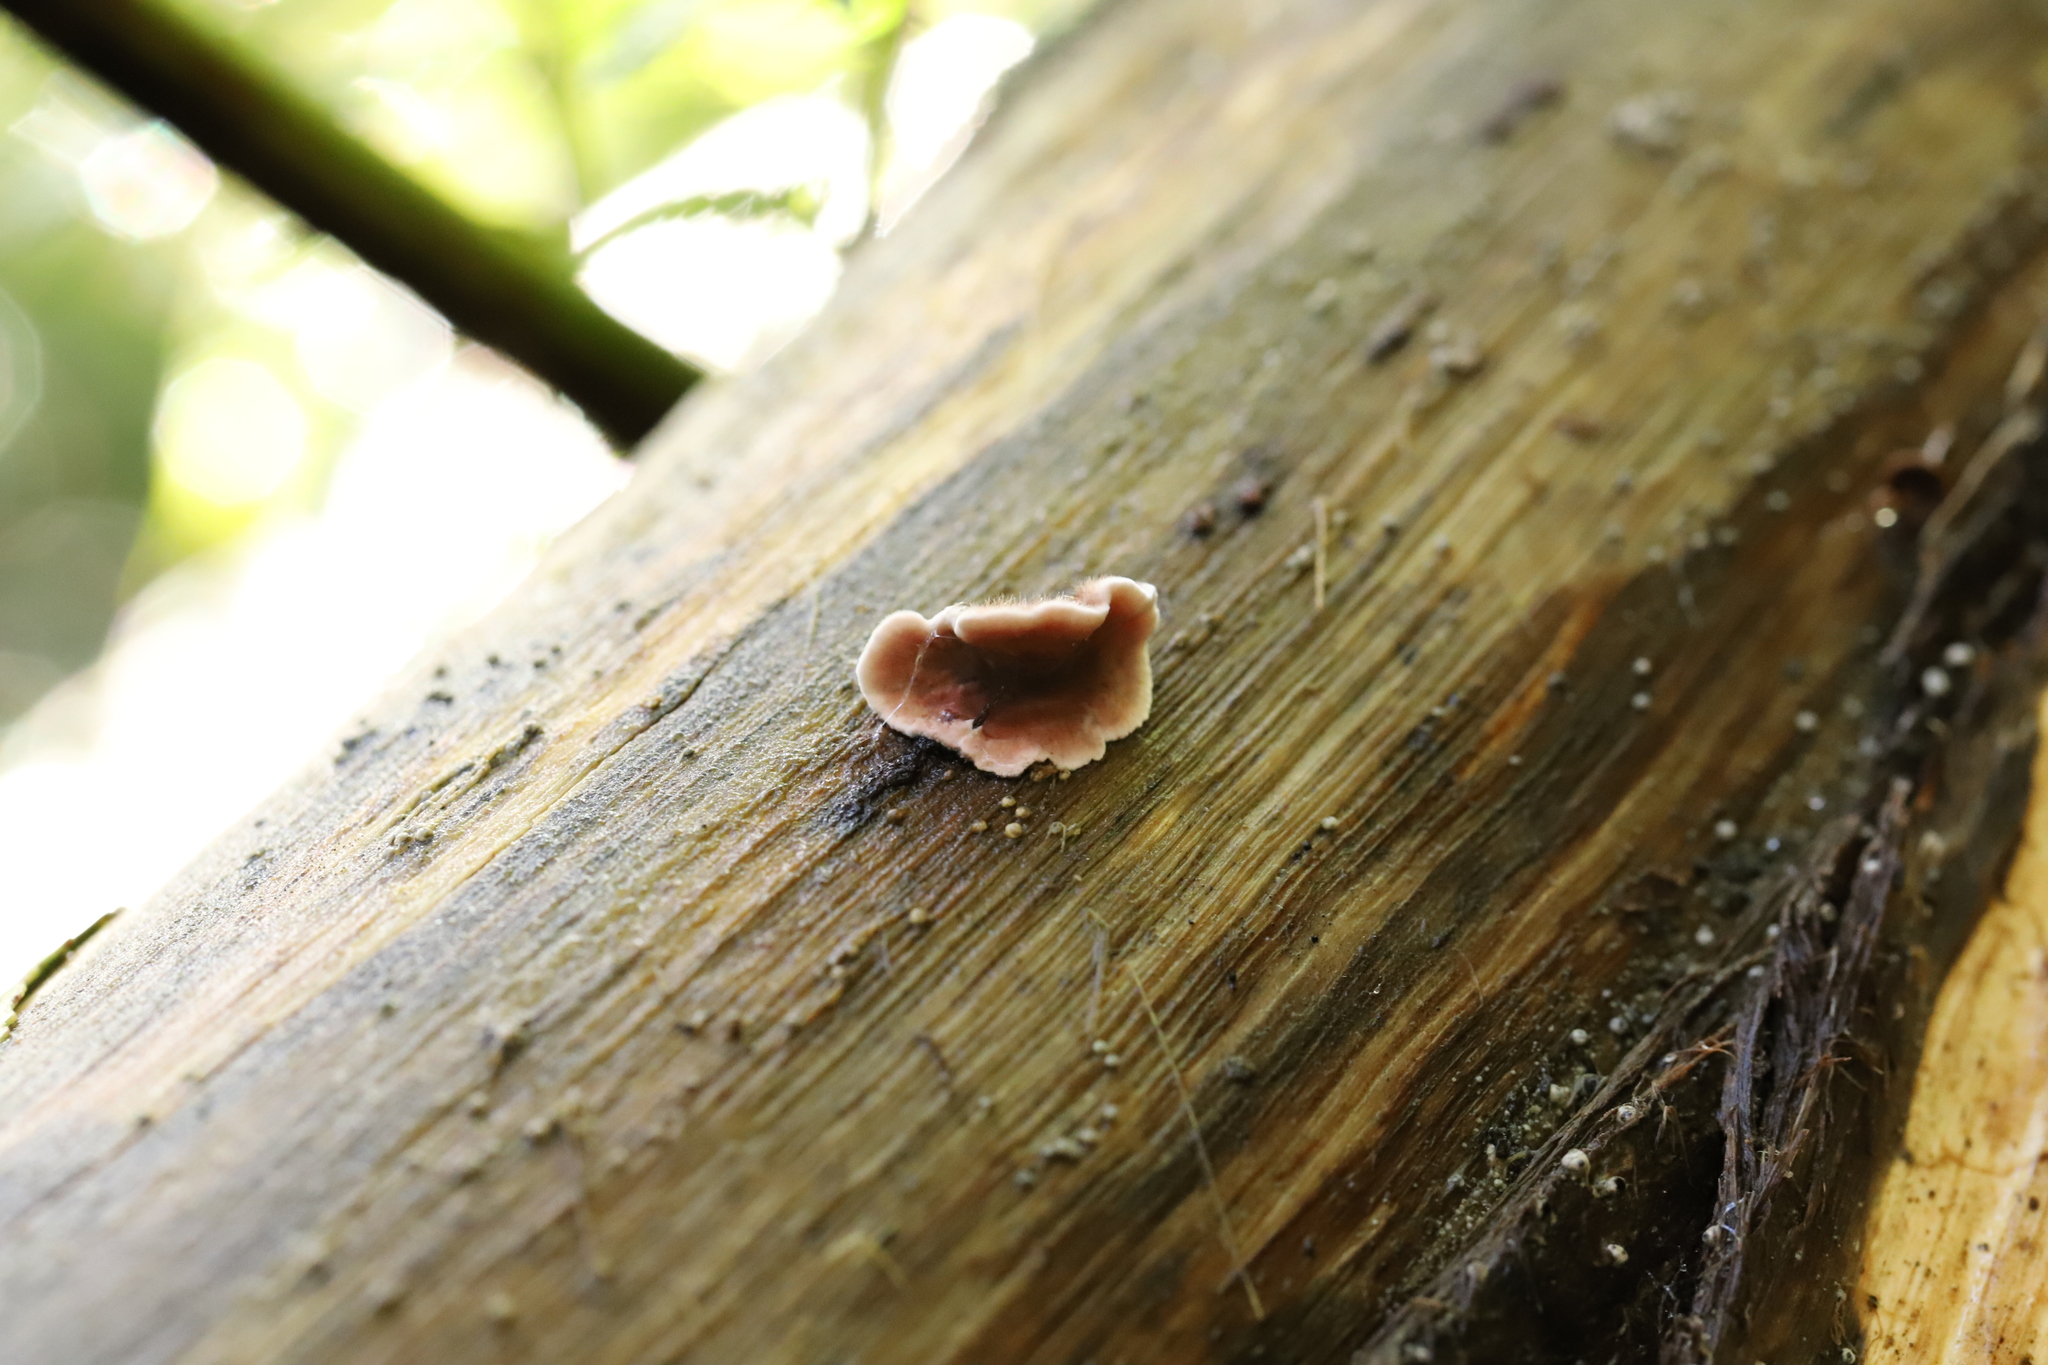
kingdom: Fungi
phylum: Basidiomycota
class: Agaricomycetes
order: Russulales
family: Stereaceae
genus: Xylobolus
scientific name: Xylobolus illudens
